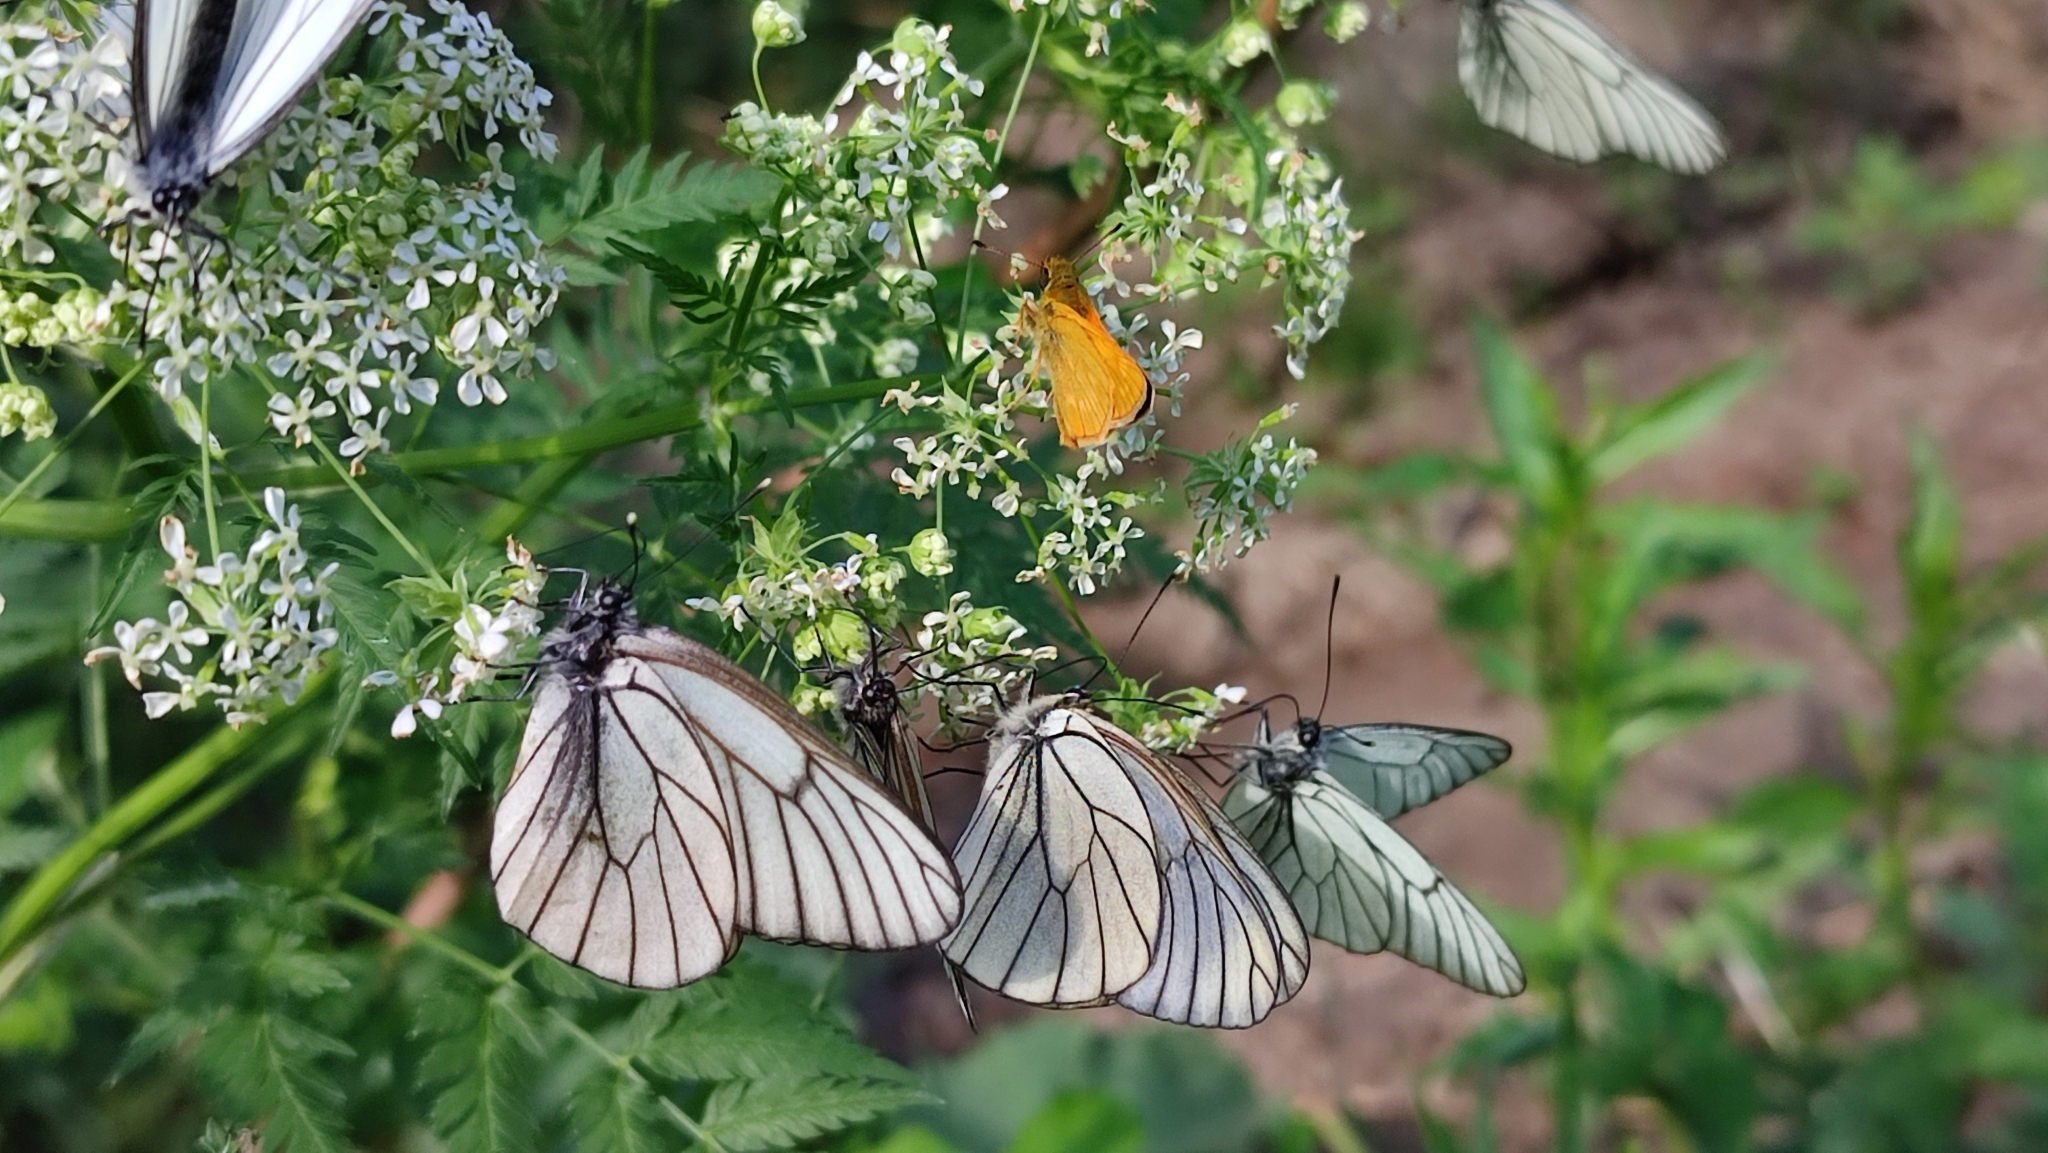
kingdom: Animalia
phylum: Arthropoda
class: Insecta
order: Lepidoptera
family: Pieridae
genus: Aporia
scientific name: Aporia crataegi
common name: Black-veined white
